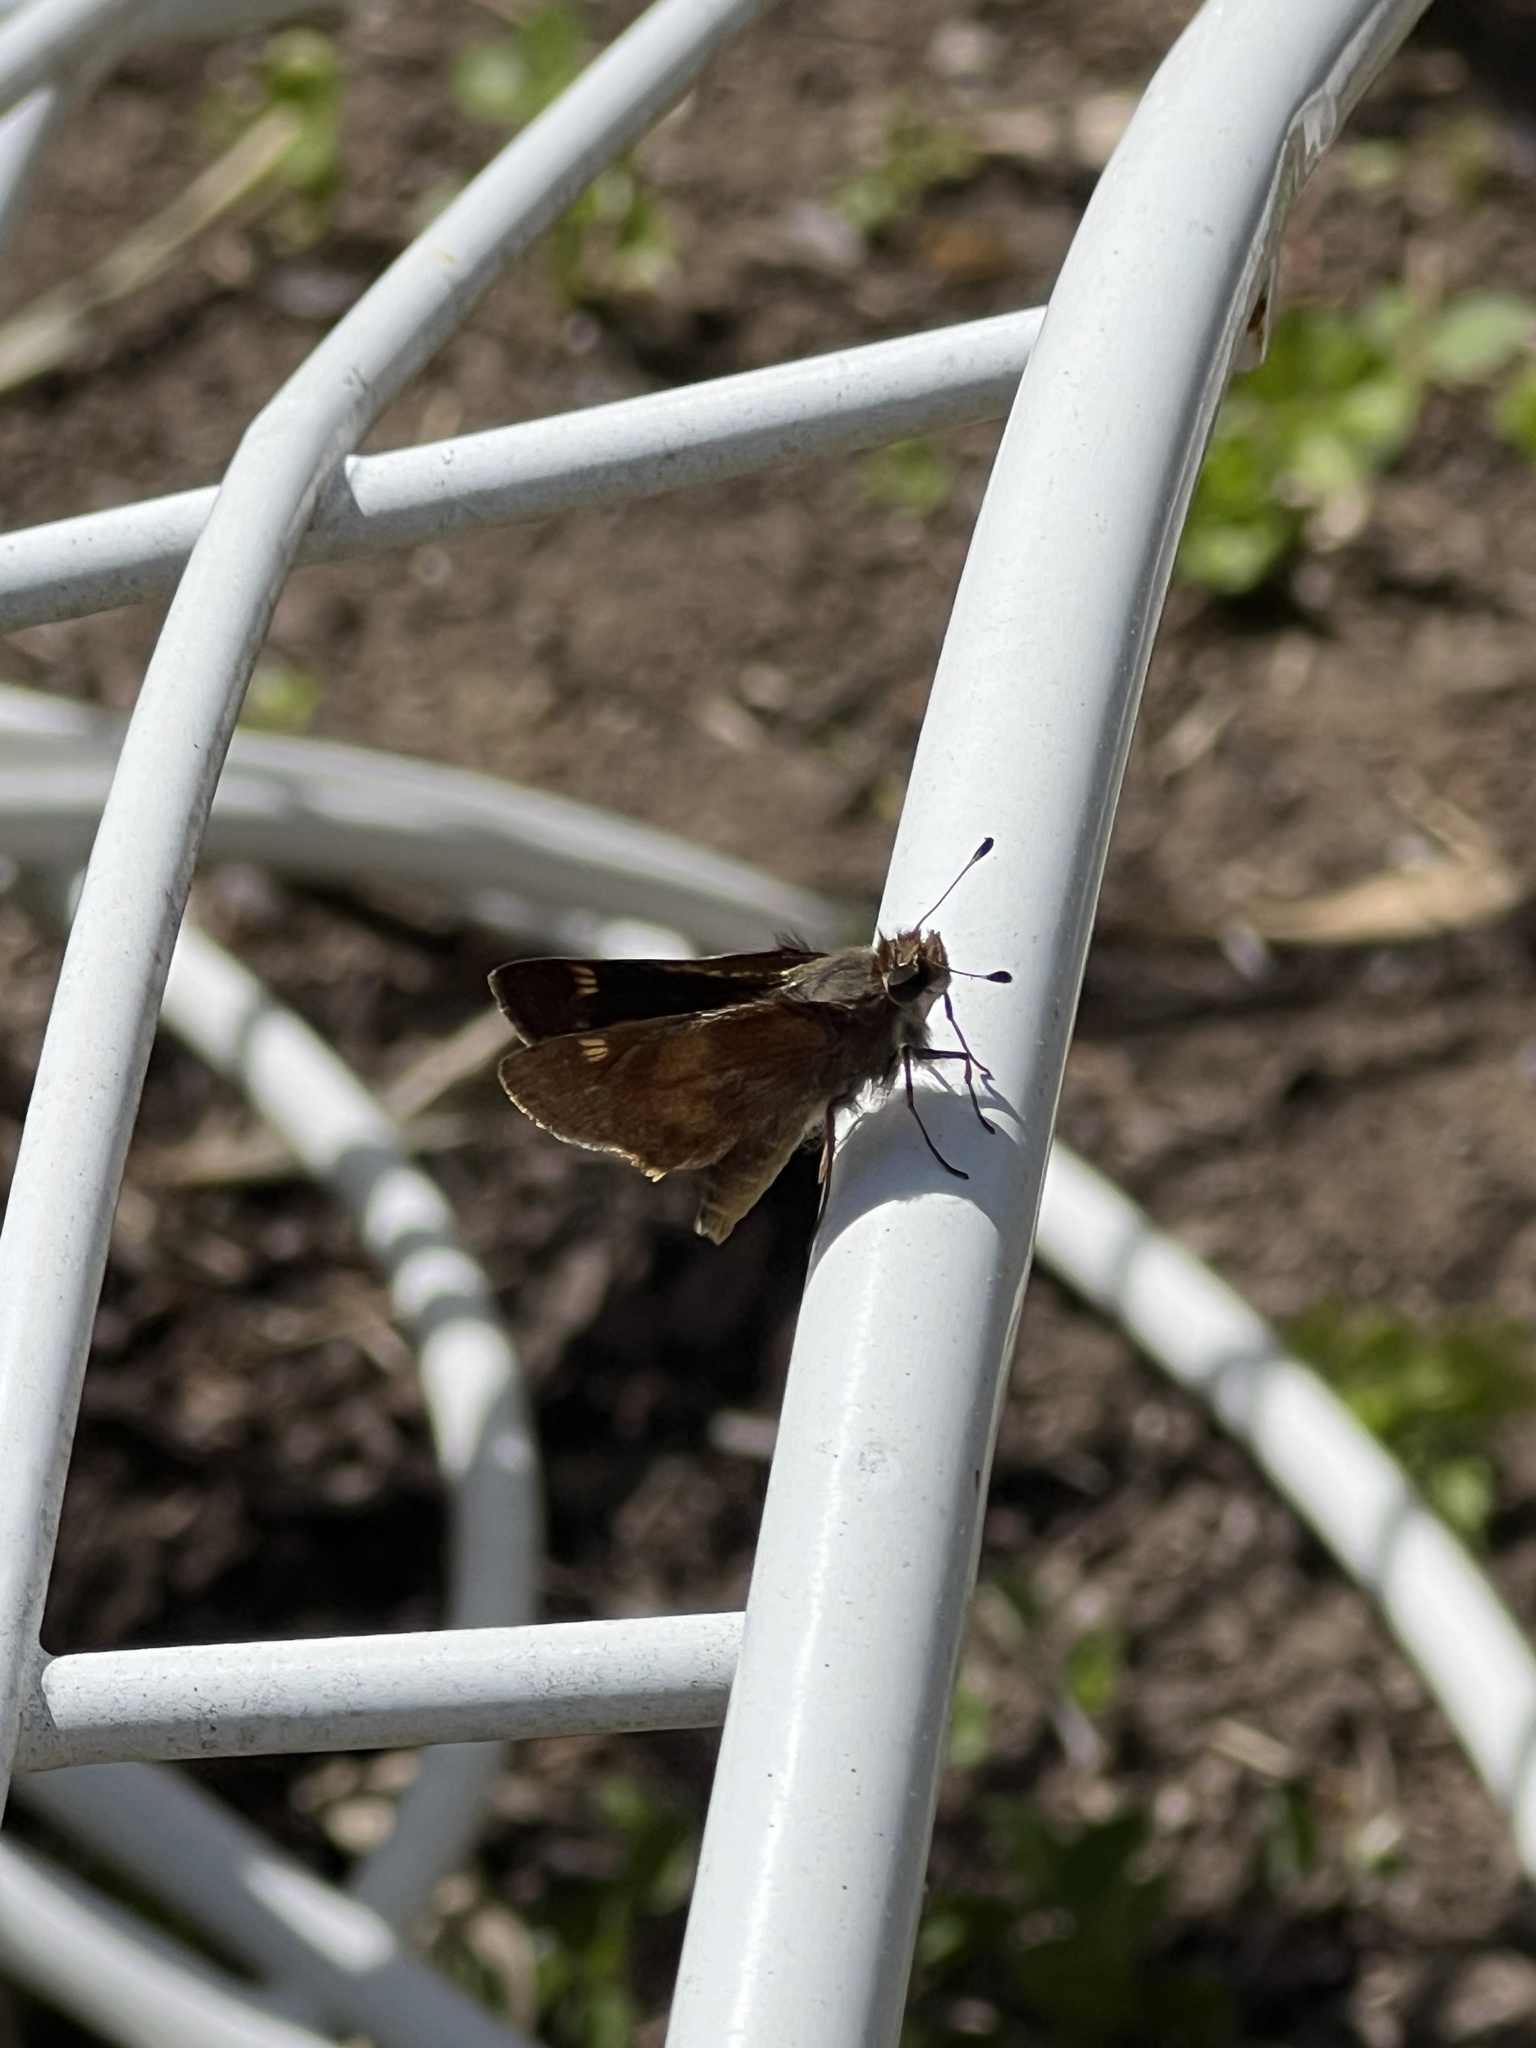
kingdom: Animalia
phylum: Arthropoda
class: Insecta
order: Lepidoptera
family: Hesperiidae
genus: Lon
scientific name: Lon melane
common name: Umber skipper
